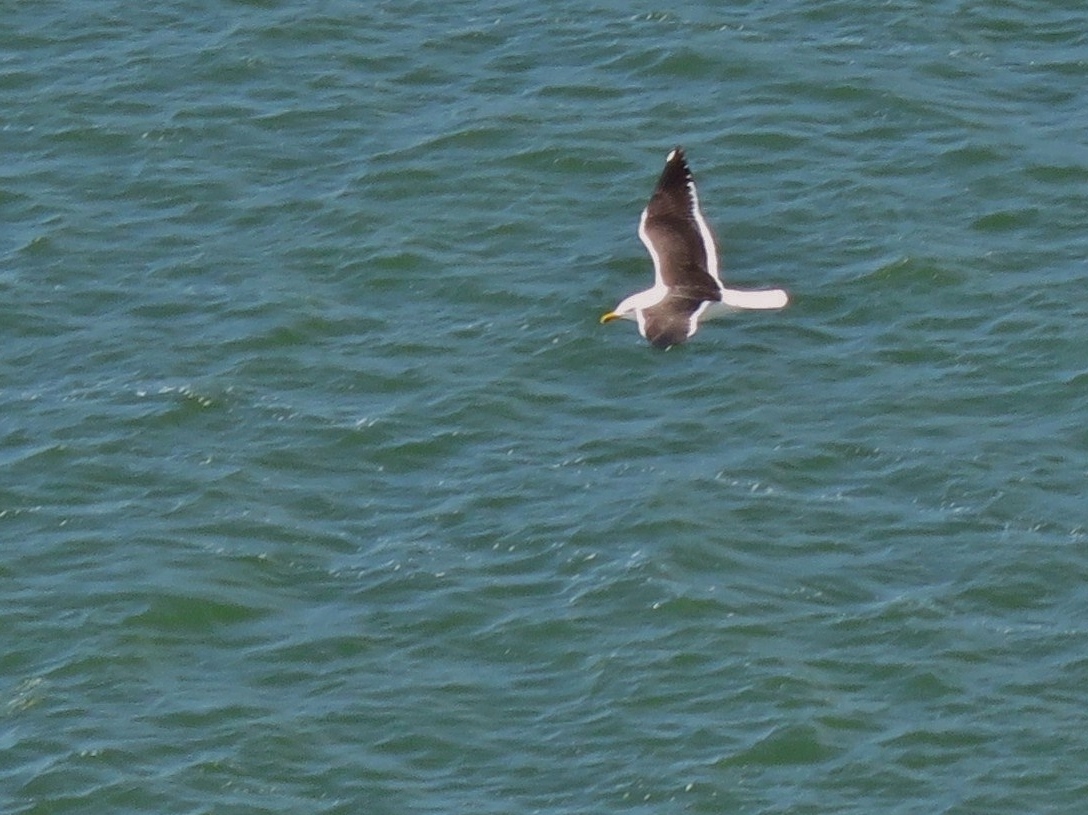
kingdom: Animalia
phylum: Chordata
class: Aves
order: Charadriiformes
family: Laridae
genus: Larus
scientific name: Larus fuscus
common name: Lesser black-backed gull
